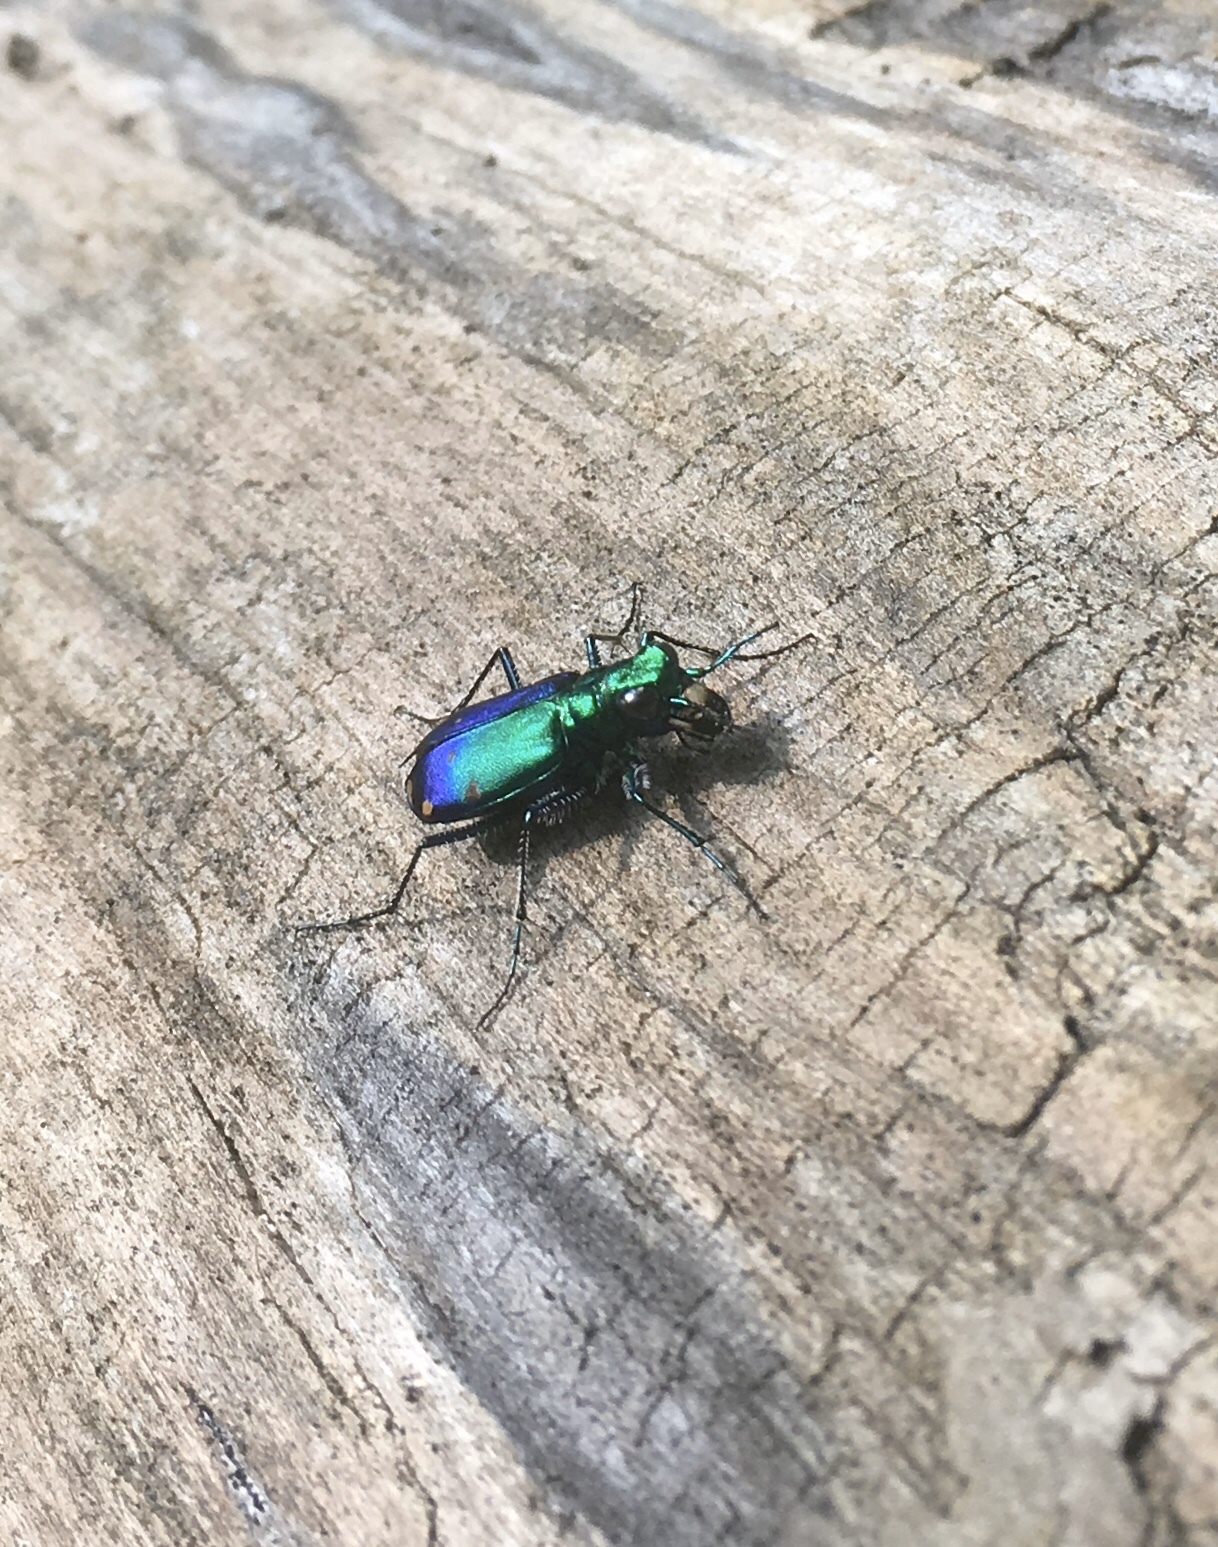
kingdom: Animalia
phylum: Arthropoda
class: Insecta
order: Coleoptera
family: Carabidae
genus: Cicindela
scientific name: Cicindela sexguttata
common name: Six-spotted tiger beetle
